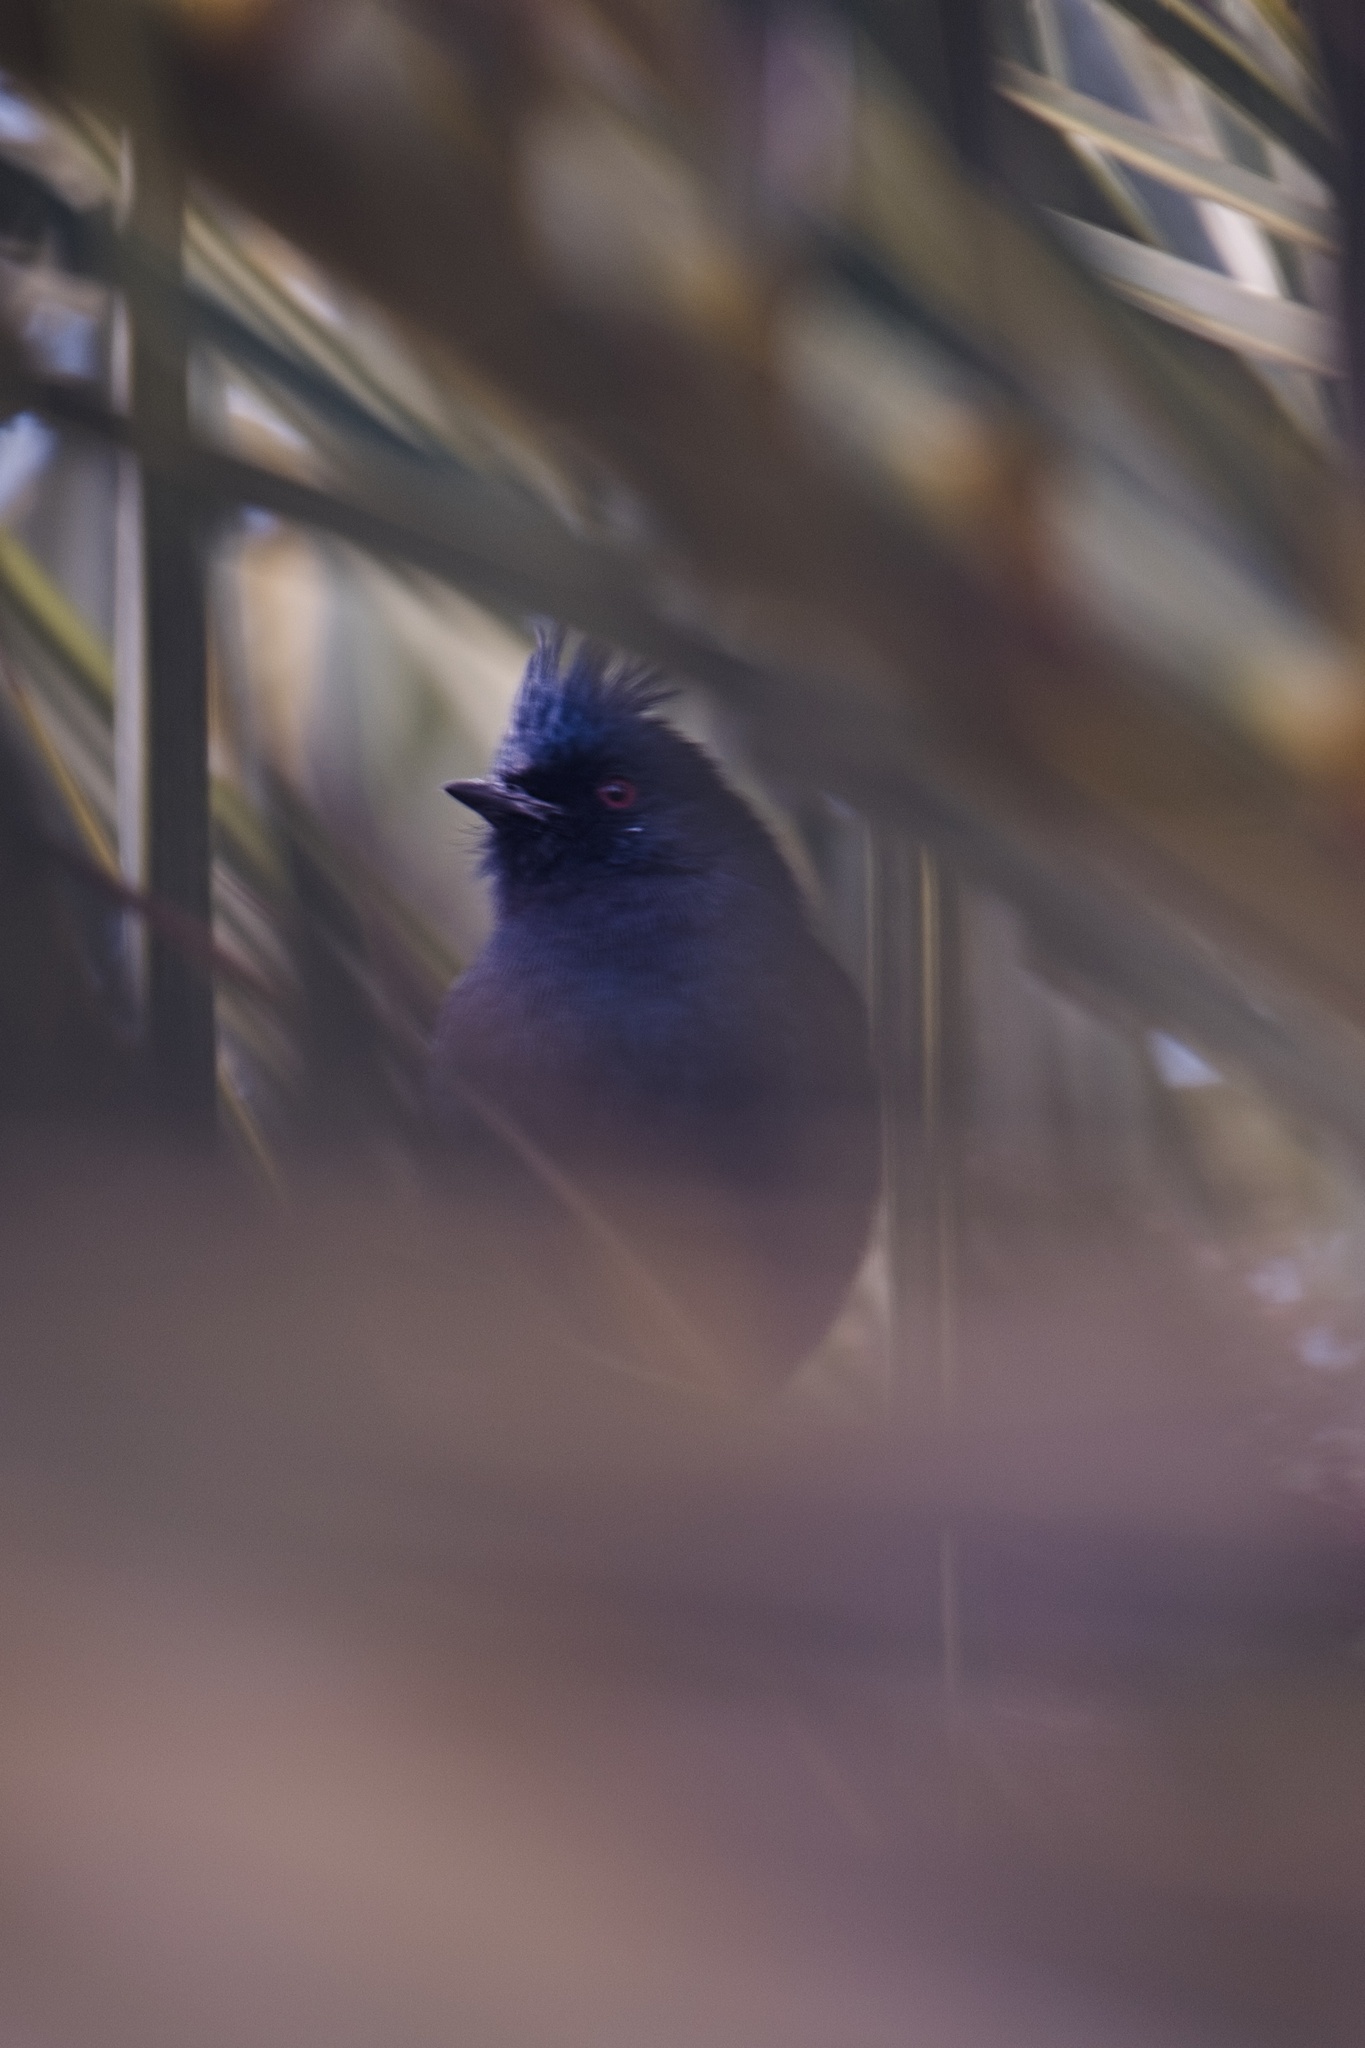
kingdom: Animalia
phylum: Chordata
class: Aves
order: Passeriformes
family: Ptilogonatidae
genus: Phainopepla
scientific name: Phainopepla nitens
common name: Phainopepla
